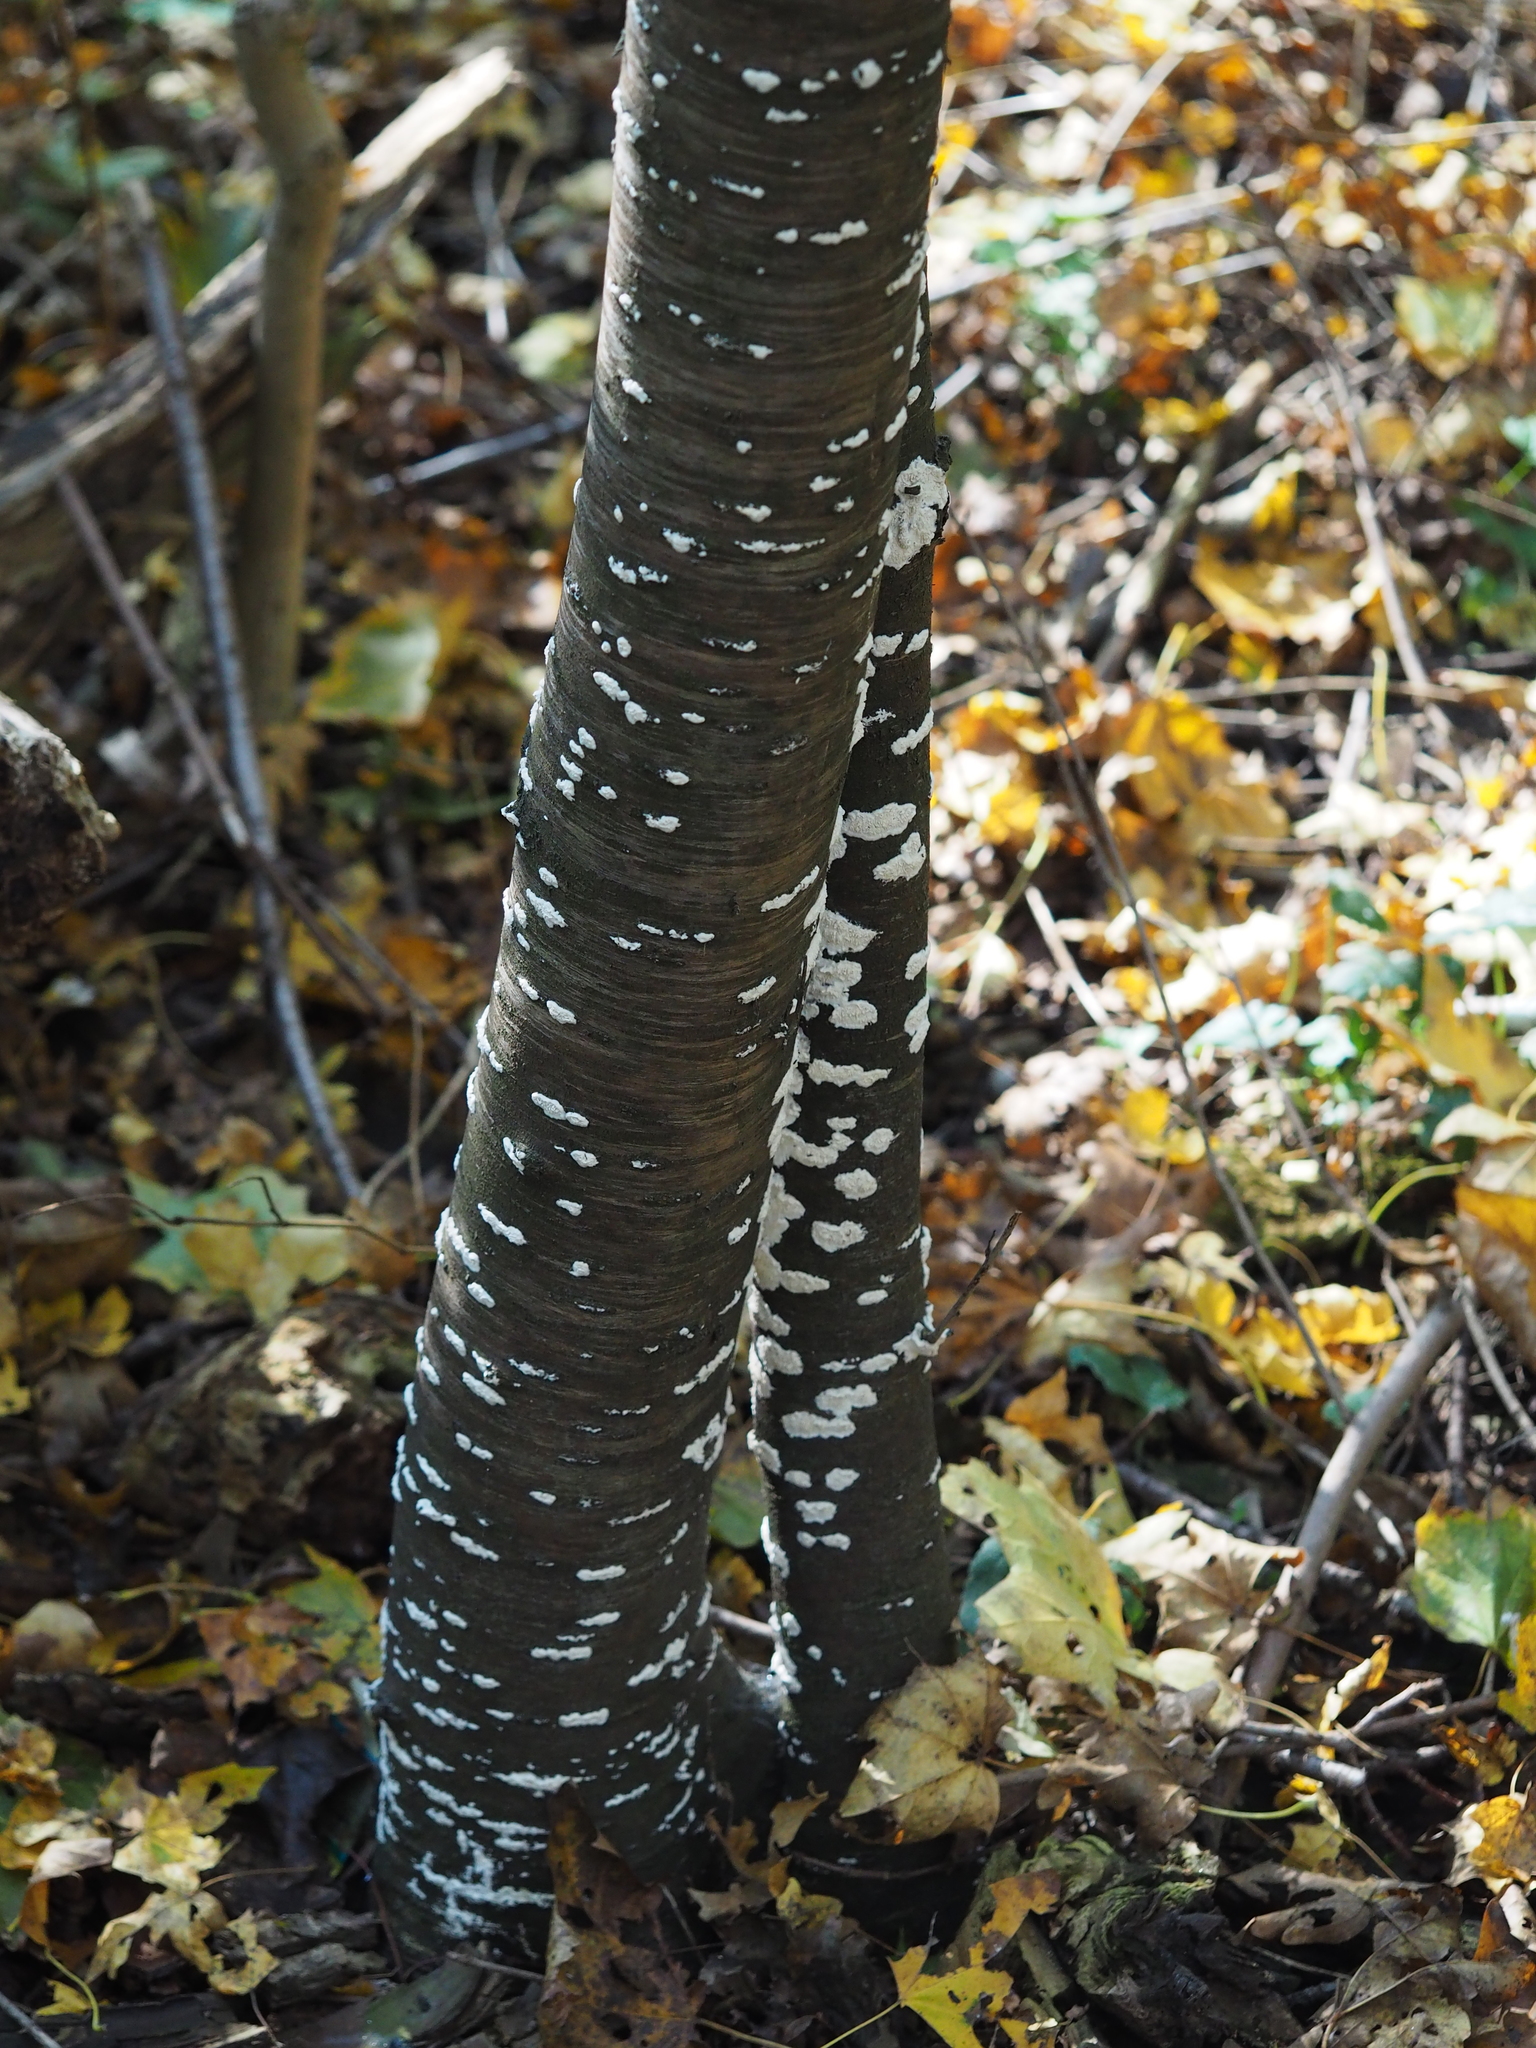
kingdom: Fungi
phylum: Basidiomycota
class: Agaricomycetes
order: Hymenochaetales
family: Schizoporaceae
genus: Xylodon
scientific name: Xylodon radula
